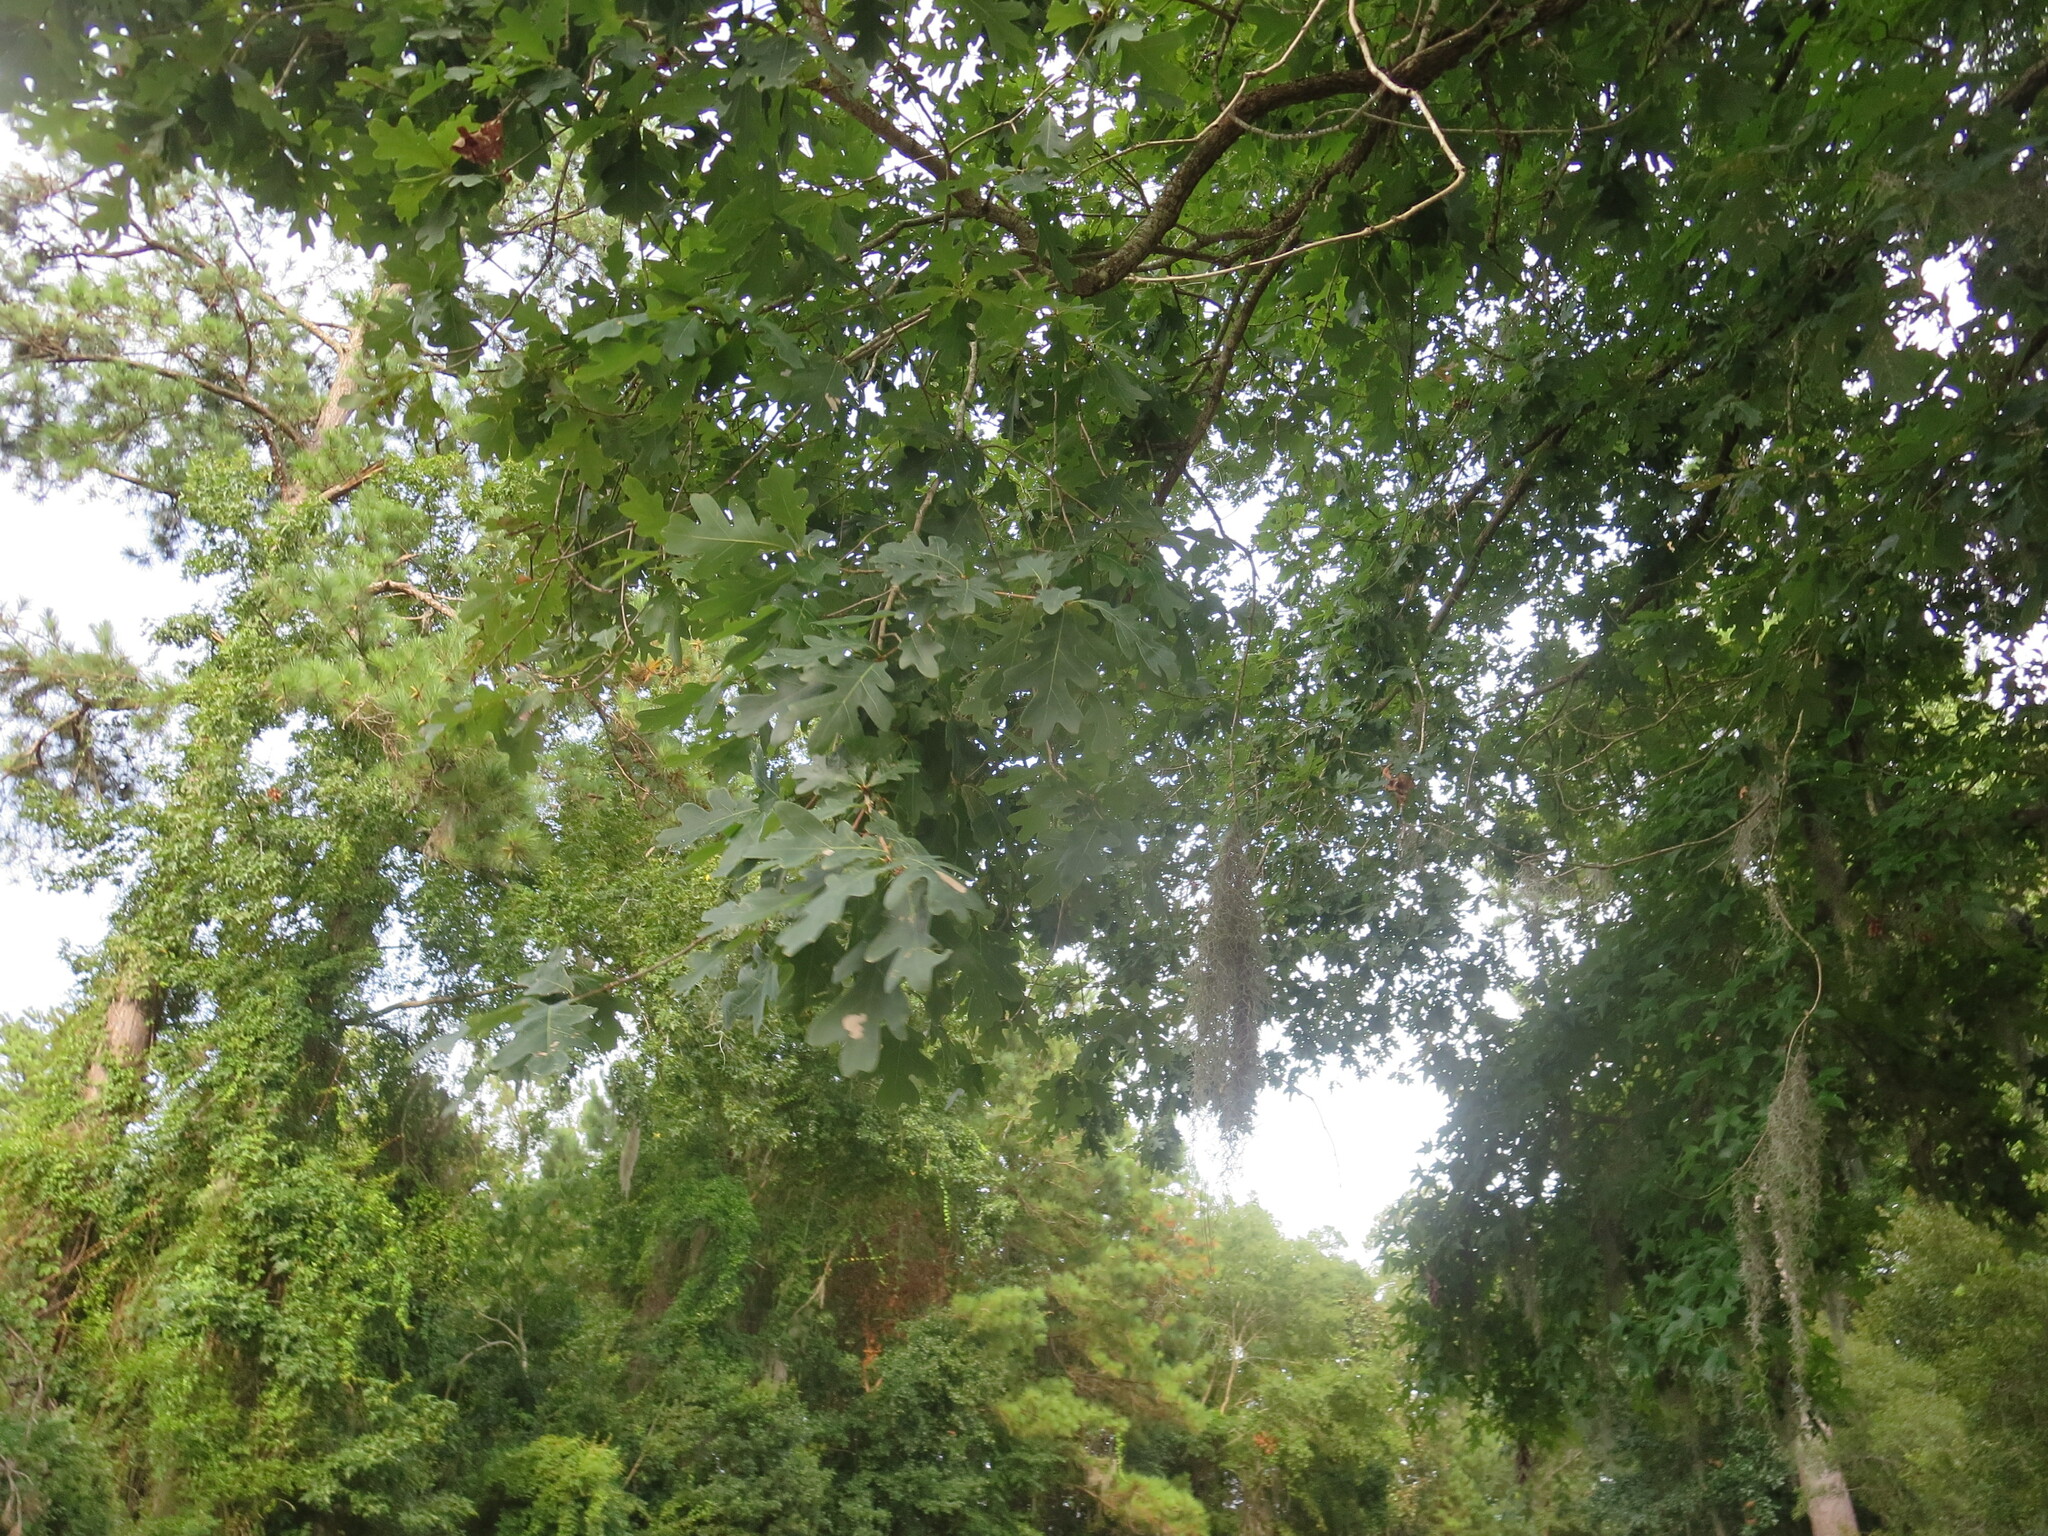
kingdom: Plantae
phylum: Tracheophyta
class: Magnoliopsida
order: Fagales
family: Fagaceae
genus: Quercus
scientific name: Quercus alba
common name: White oak
